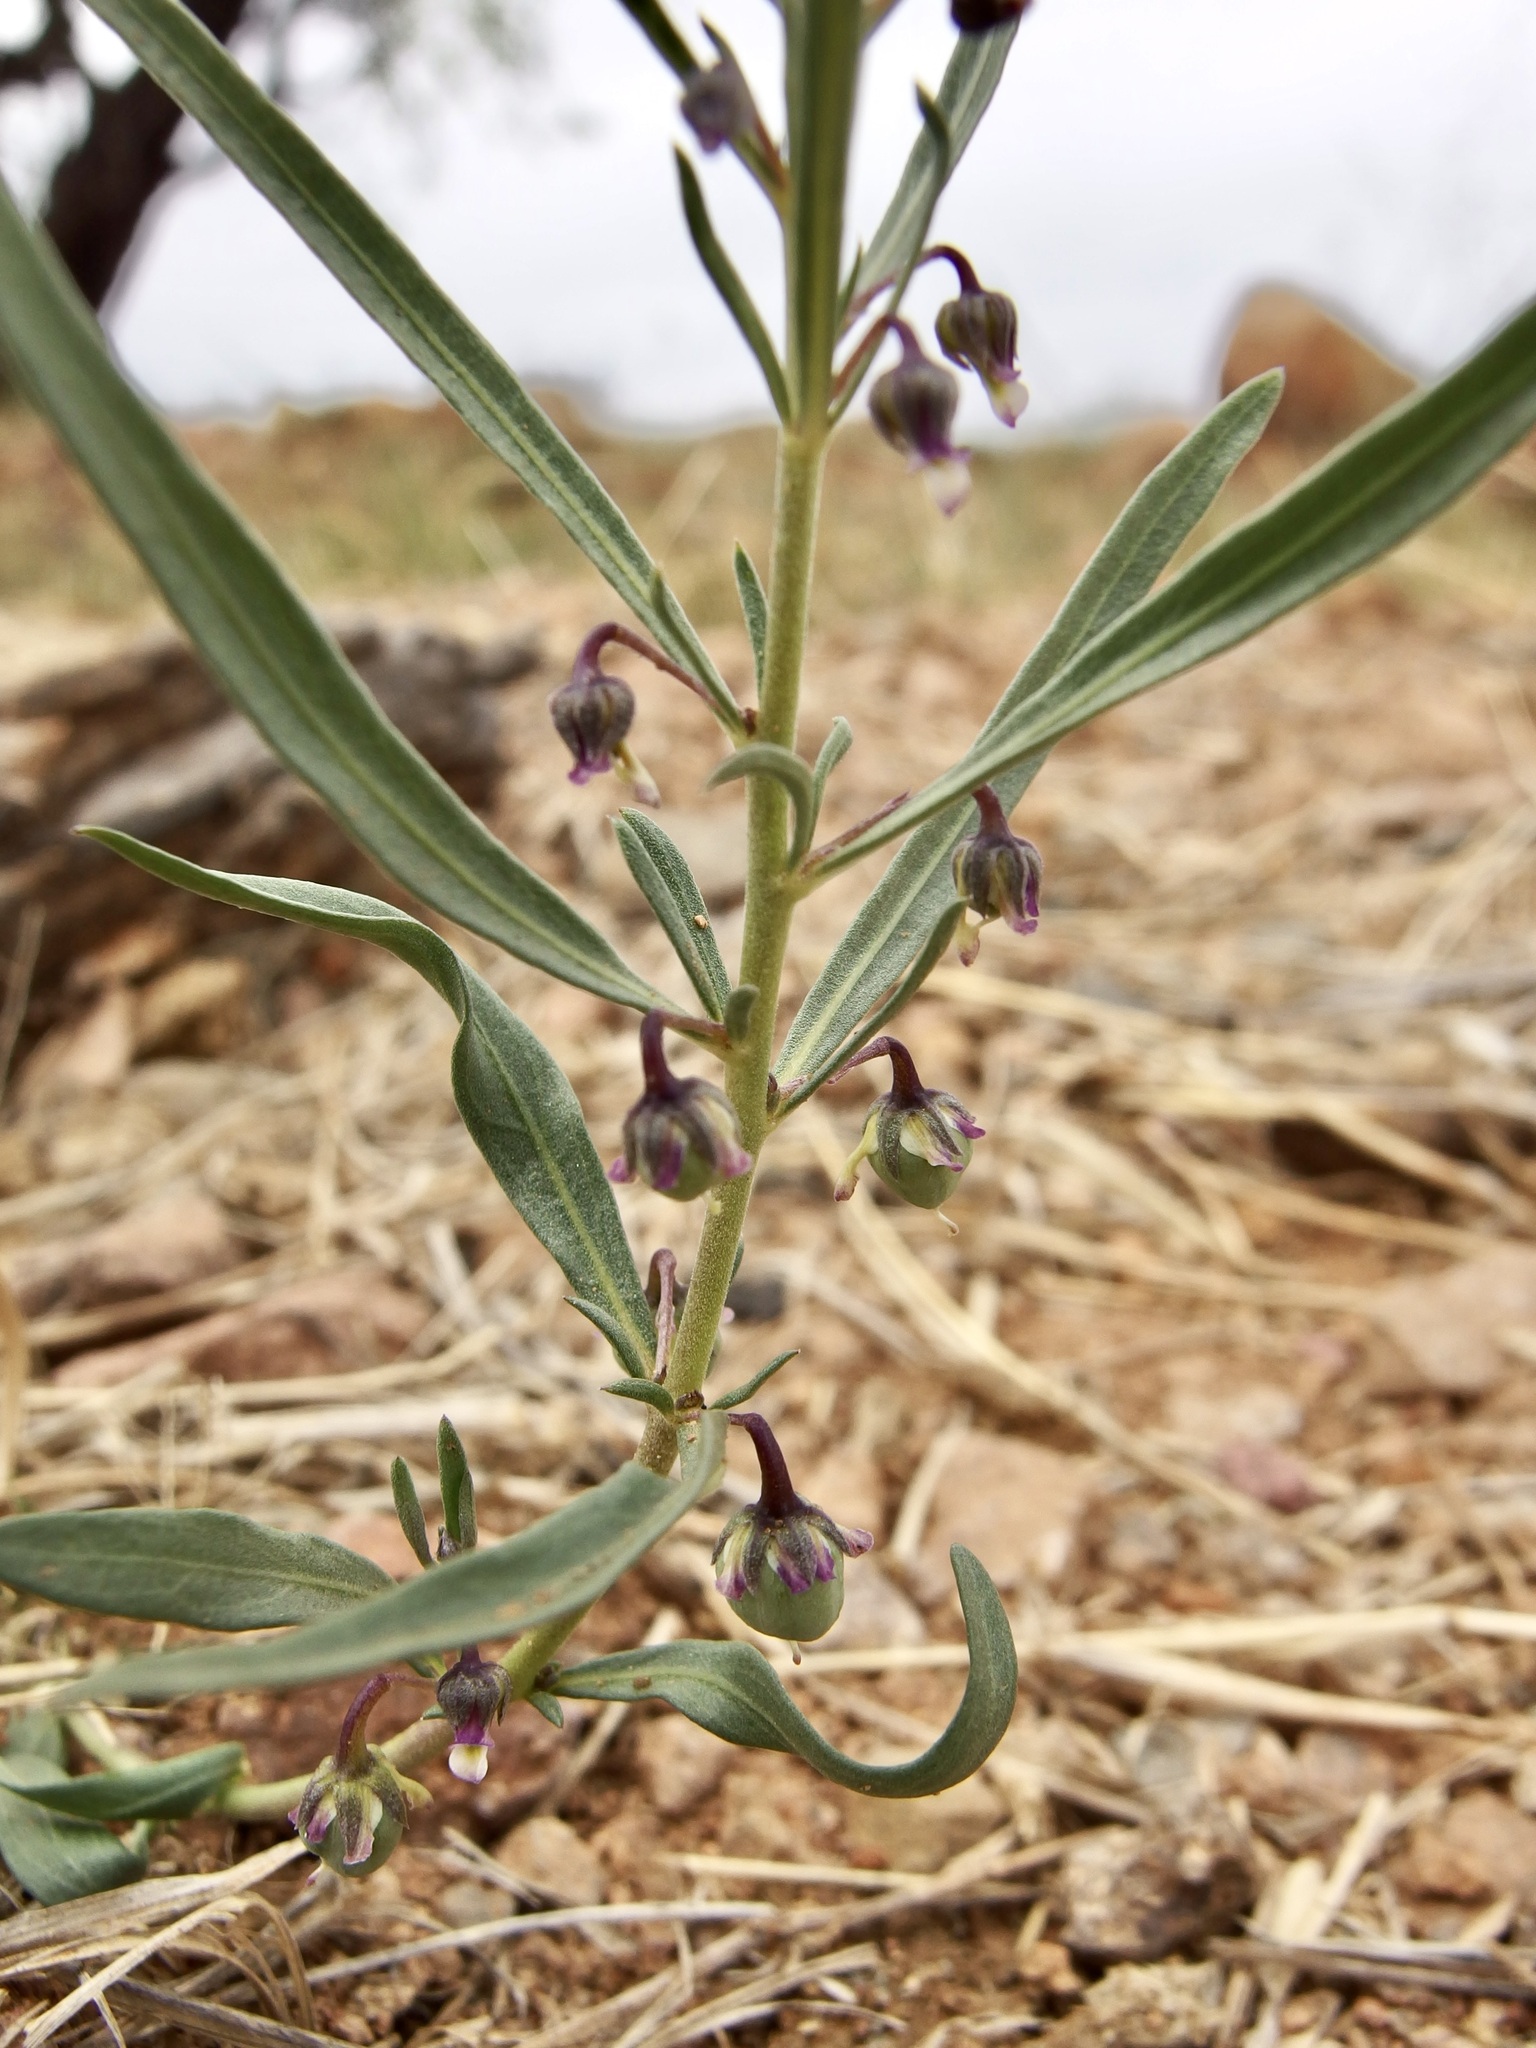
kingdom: Plantae
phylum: Tracheophyta
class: Magnoliopsida
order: Malpighiales
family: Violaceae
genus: Pombalia
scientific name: Pombalia verticillata
